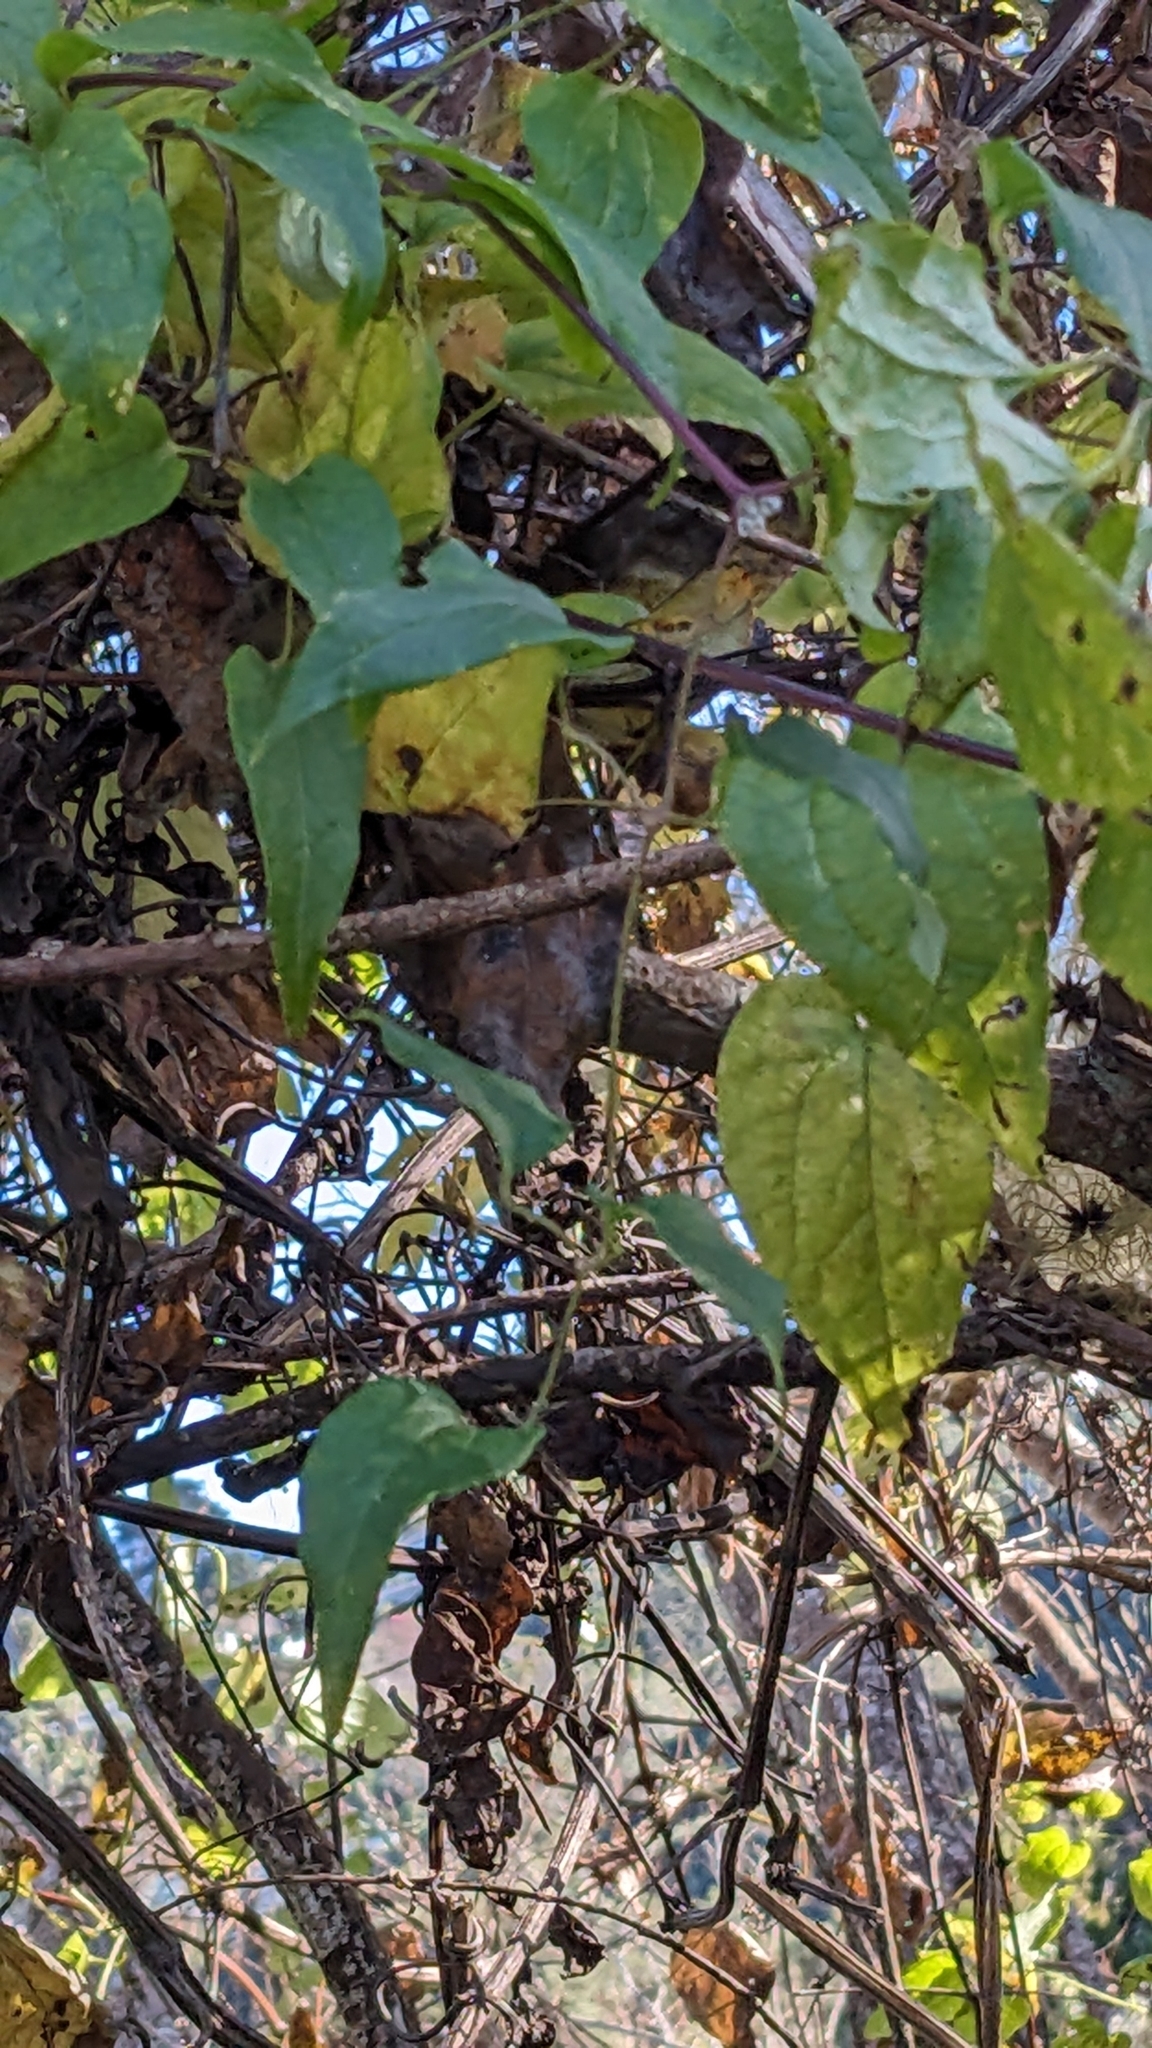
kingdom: Plantae
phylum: Tracheophyta
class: Magnoliopsida
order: Ranunculales
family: Ranunculaceae
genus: Clematis
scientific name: Clematis vitalba
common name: Evergreen clematis
